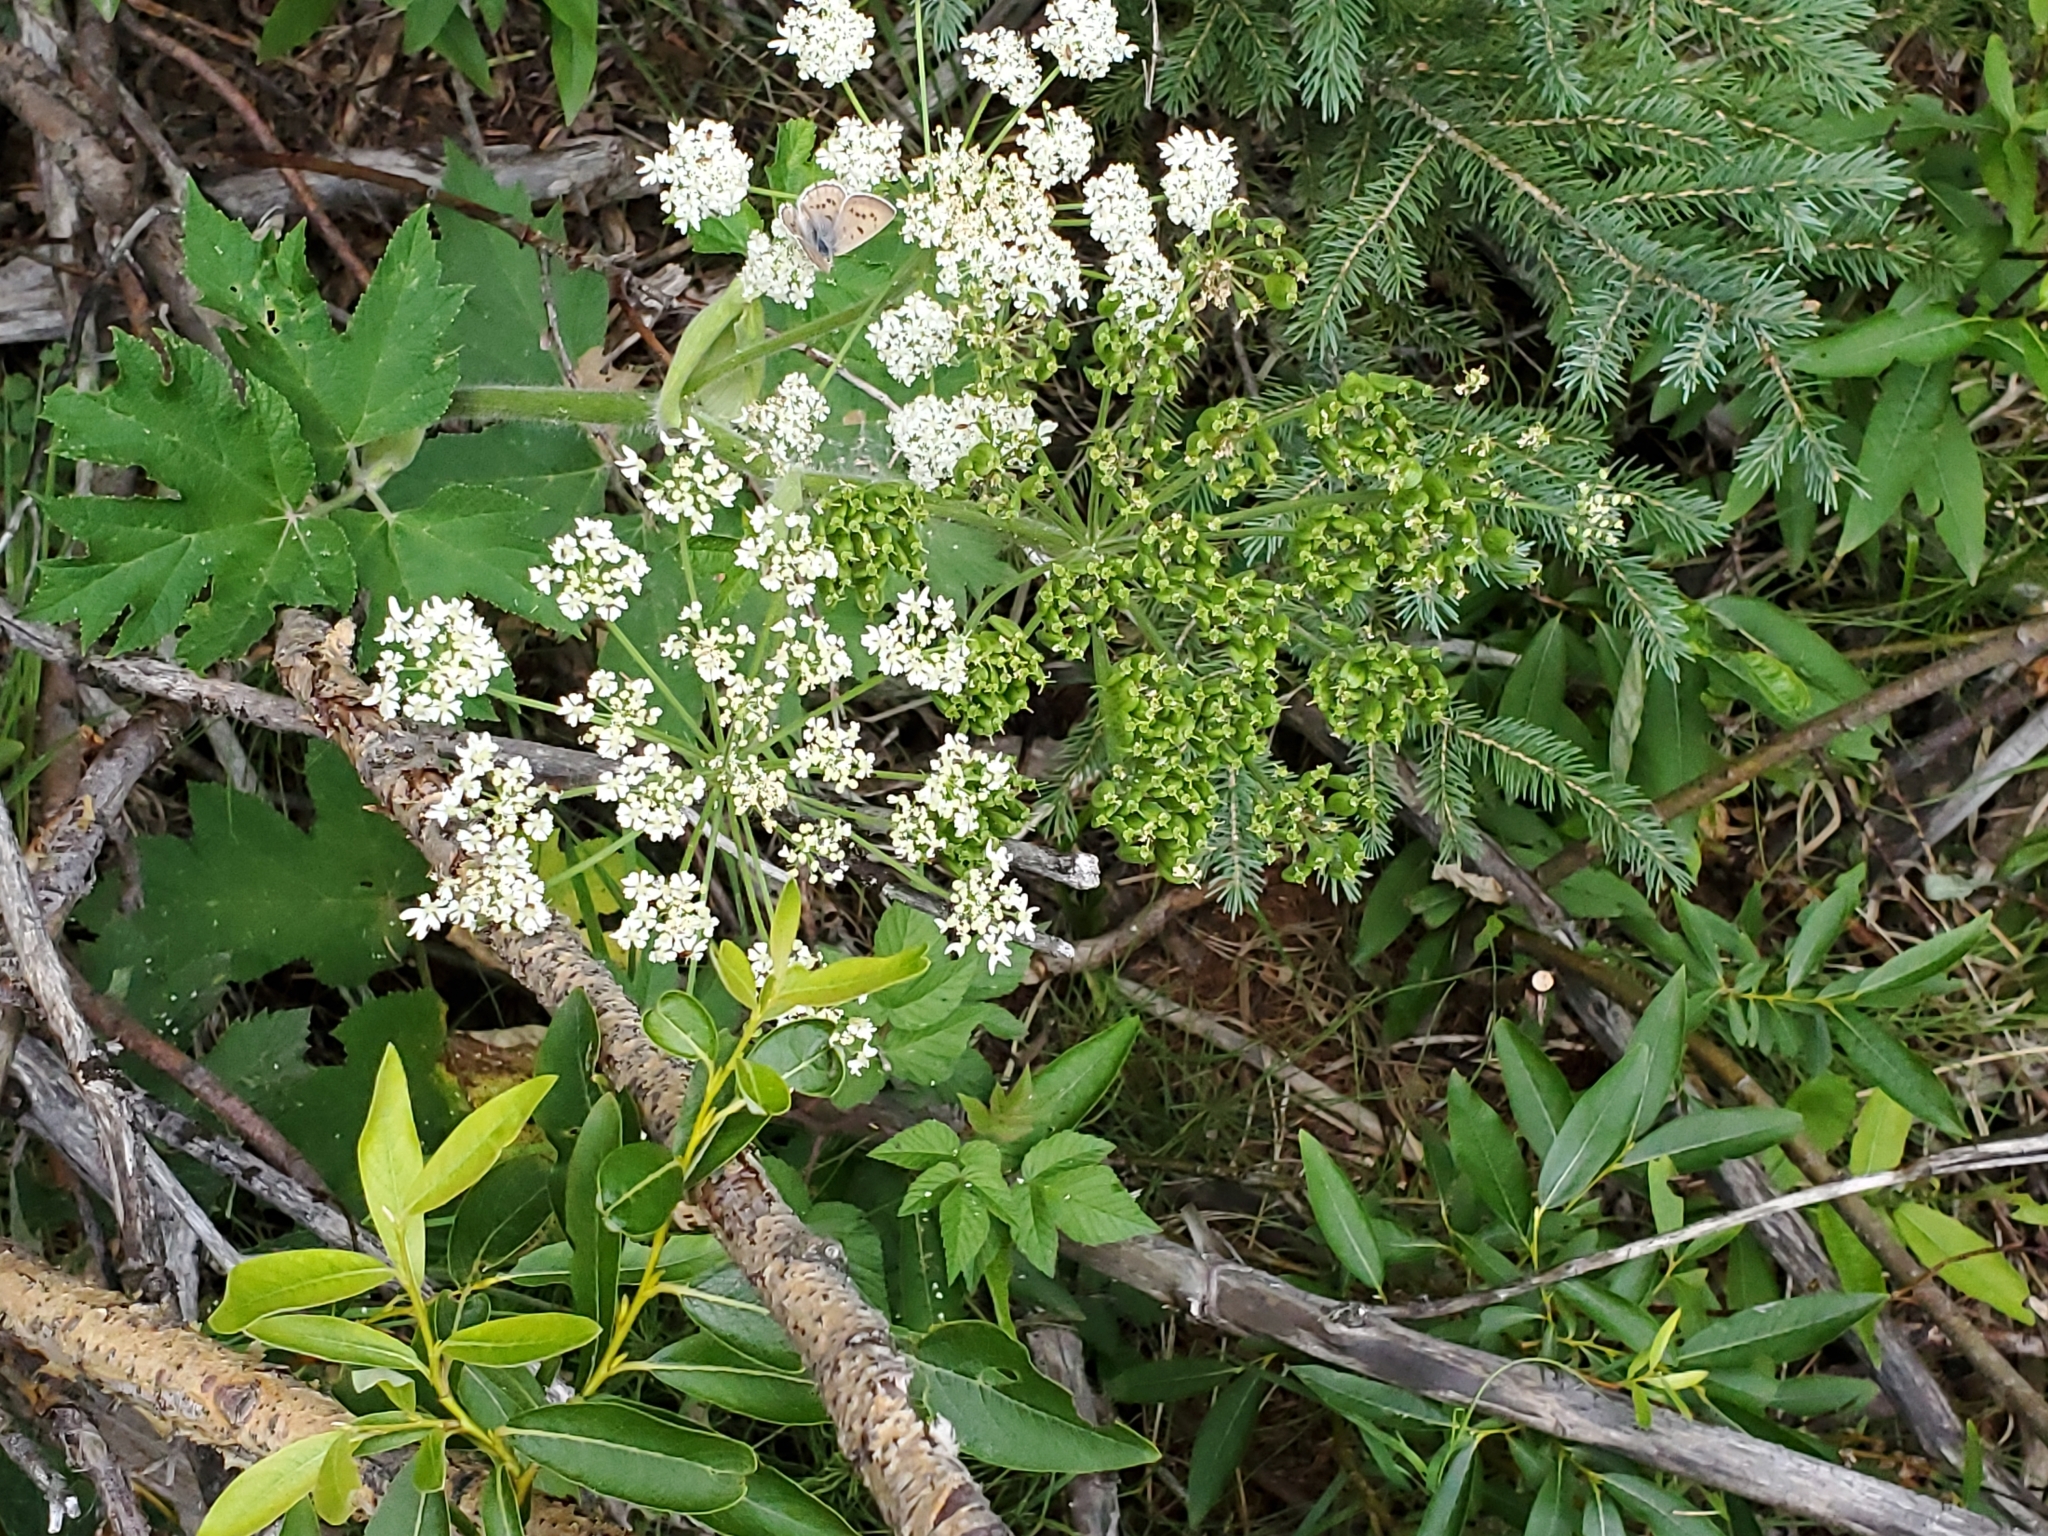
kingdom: Plantae
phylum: Tracheophyta
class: Magnoliopsida
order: Apiales
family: Apiaceae
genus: Heracleum
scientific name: Heracleum maximum
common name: American cow parsnip
